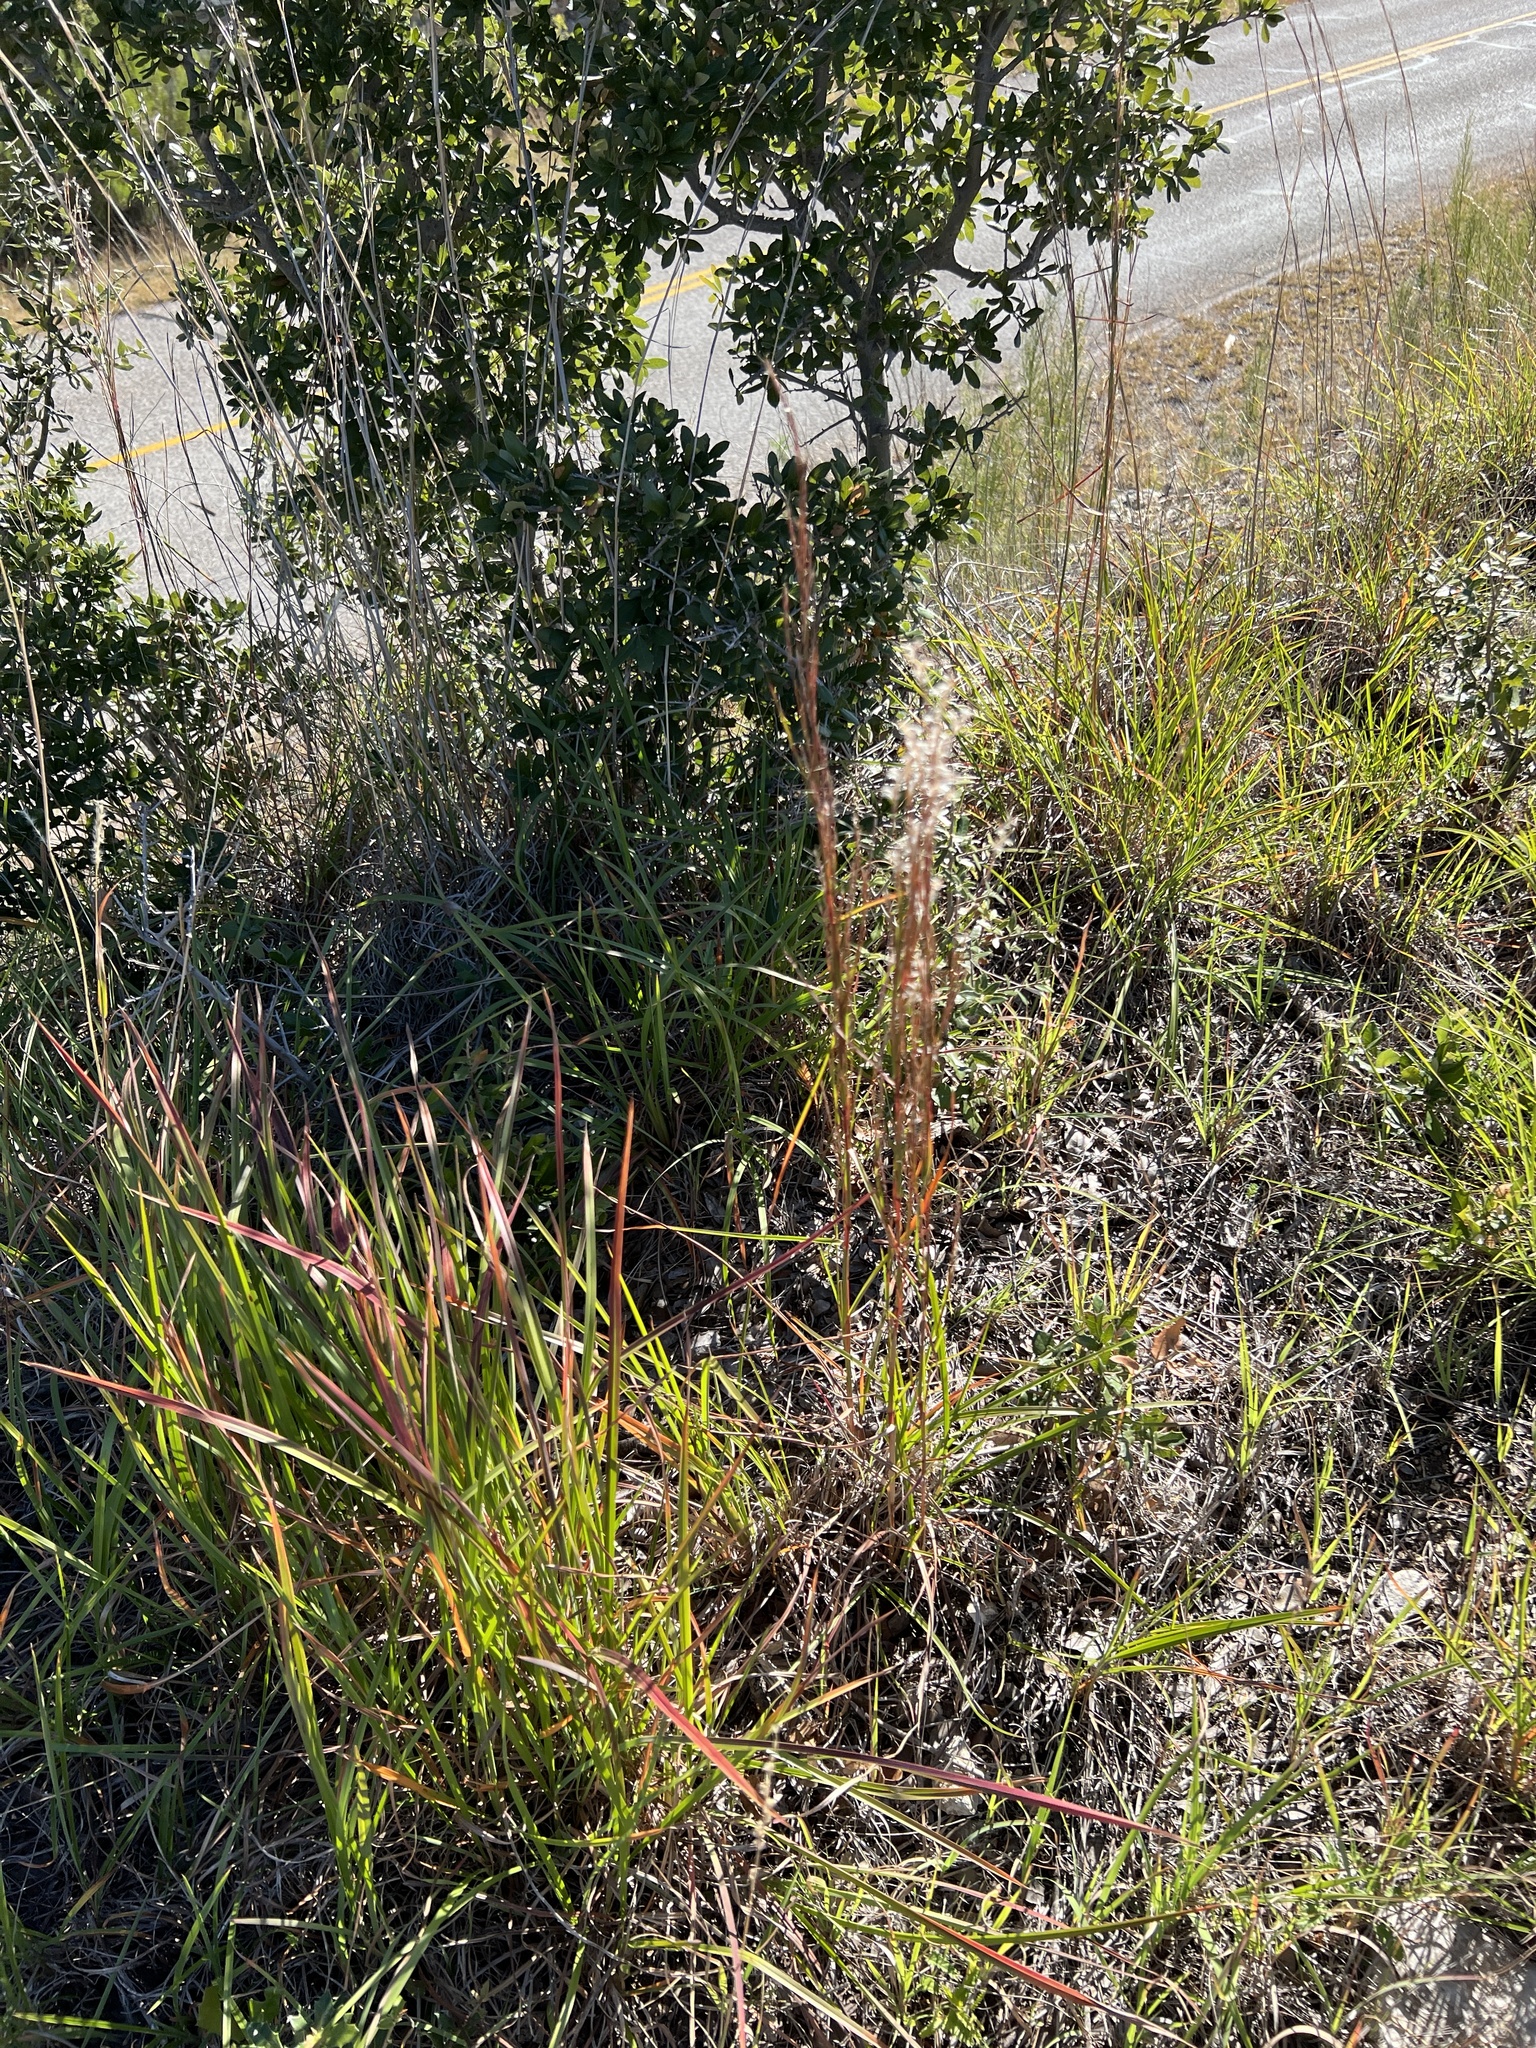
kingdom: Plantae
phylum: Tracheophyta
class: Liliopsida
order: Poales
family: Poaceae
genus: Schizachyrium
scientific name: Schizachyrium scoparium
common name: Little bluestem
